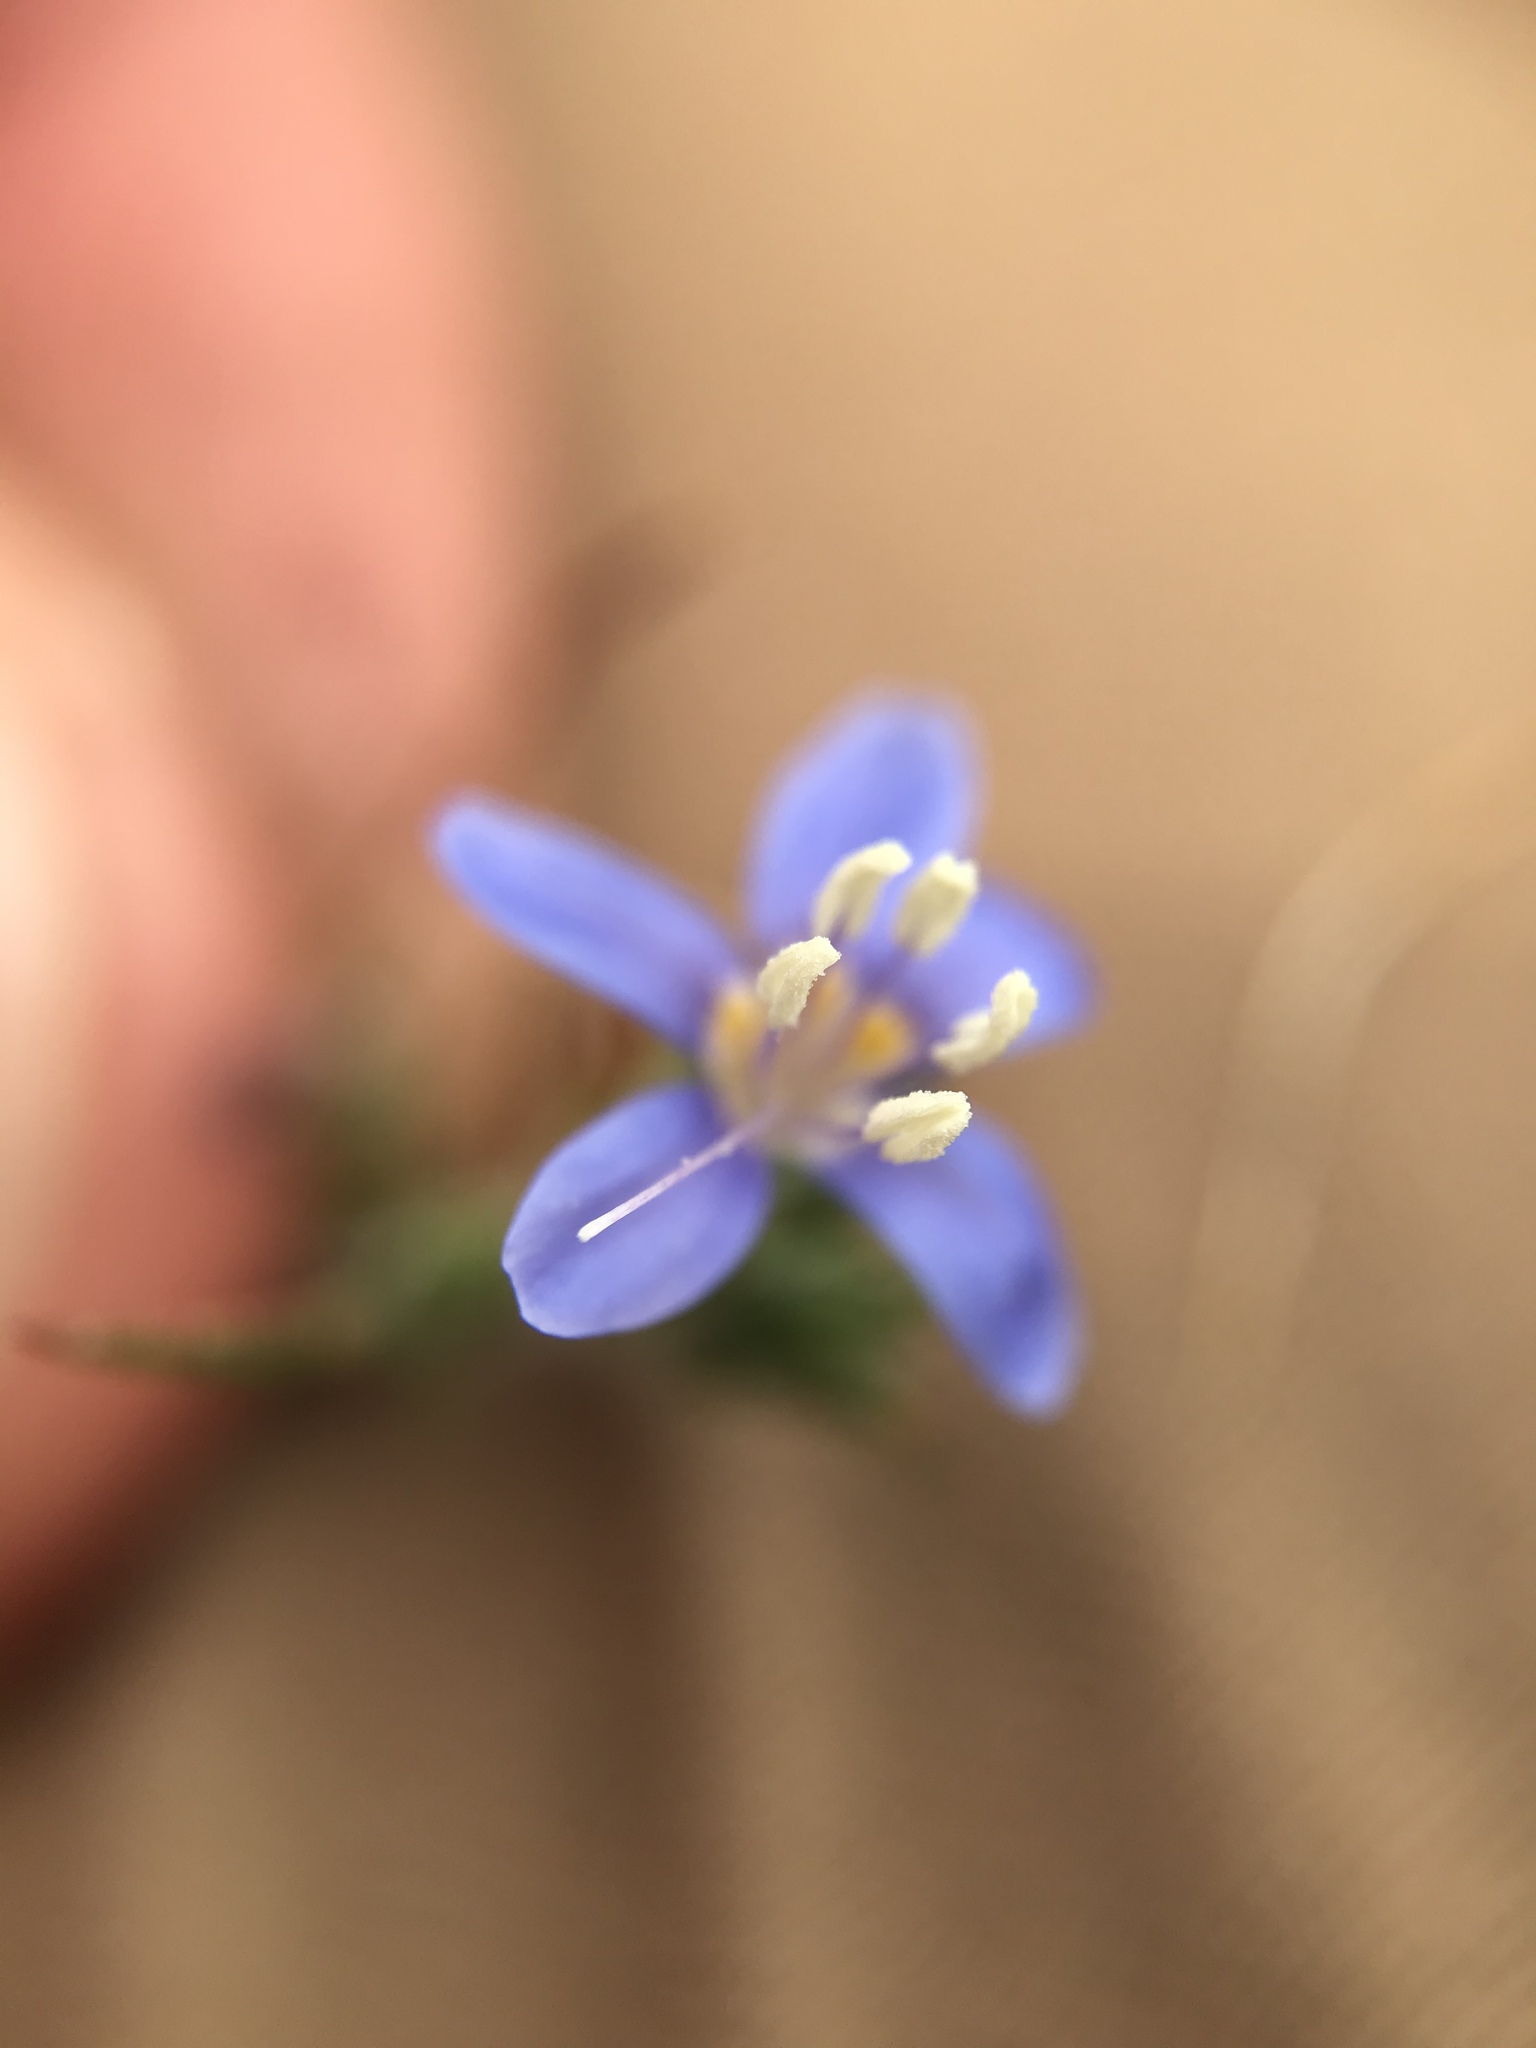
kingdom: Plantae
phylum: Tracheophyta
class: Magnoliopsida
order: Ericales
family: Polemoniaceae
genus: Eriastrum
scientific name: Eriastrum sapphirinum
